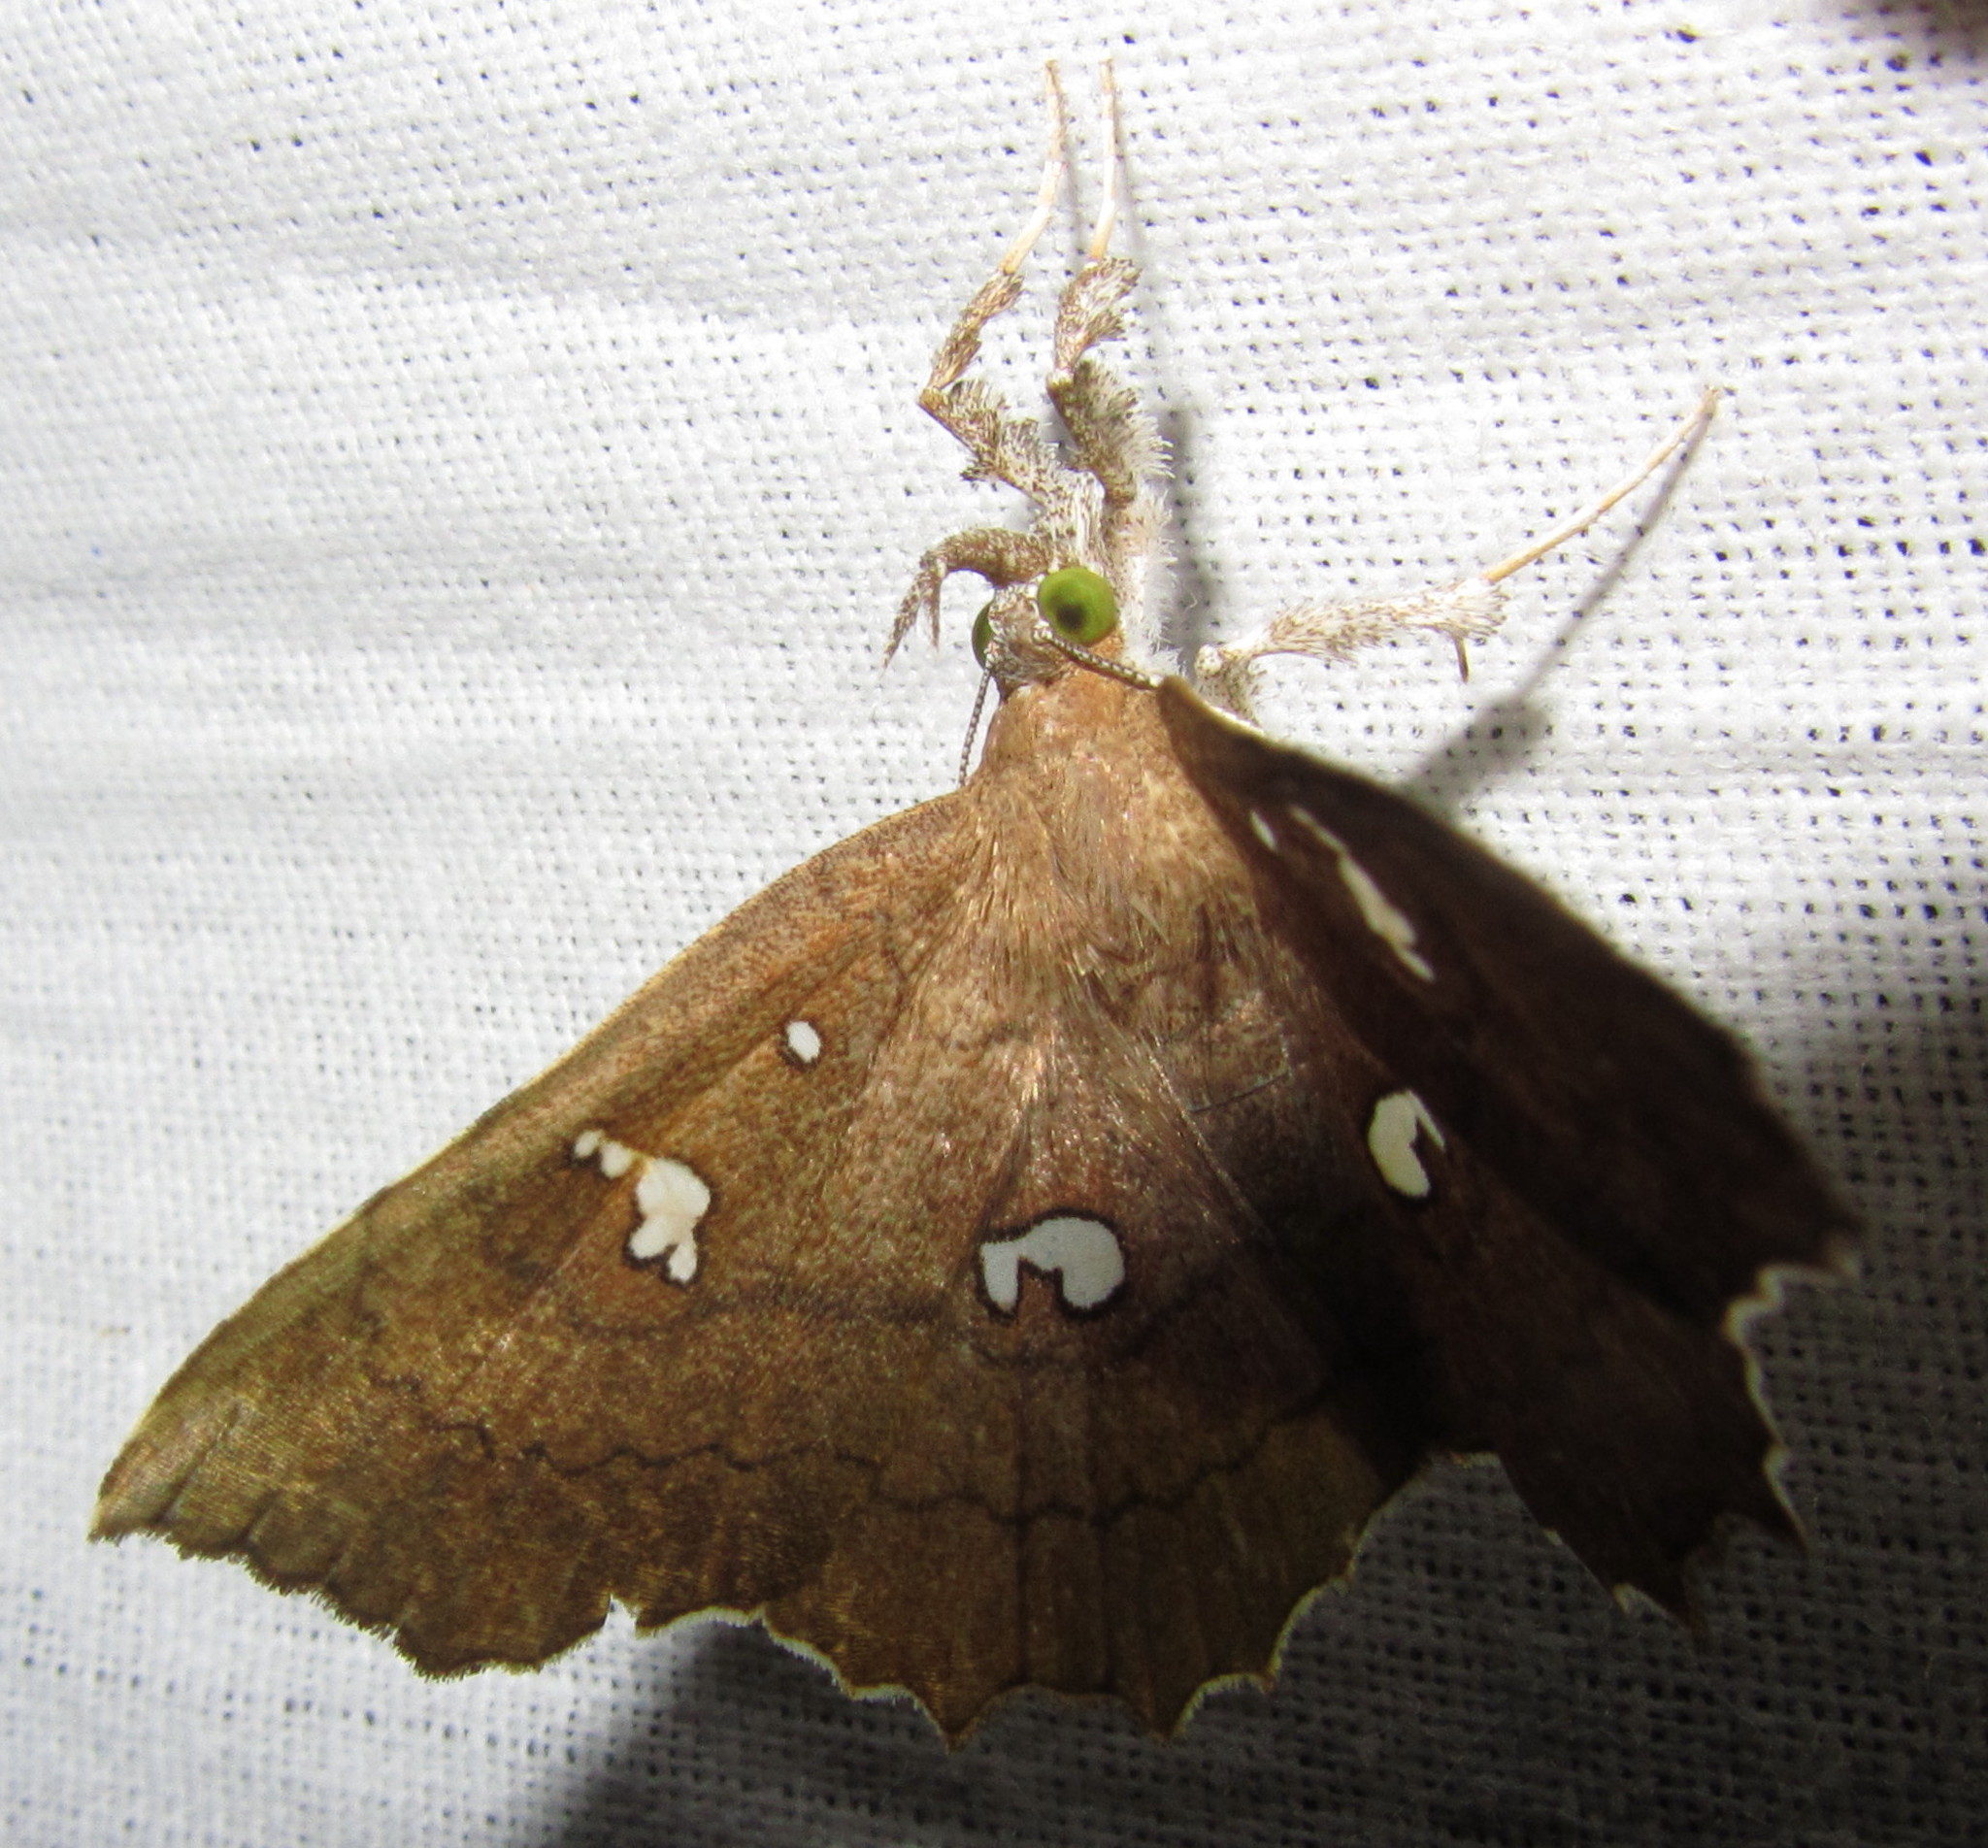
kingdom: Animalia
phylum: Arthropoda
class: Insecta
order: Lepidoptera
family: Erebidae
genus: Egnasia
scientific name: Egnasia ephyrodalis
